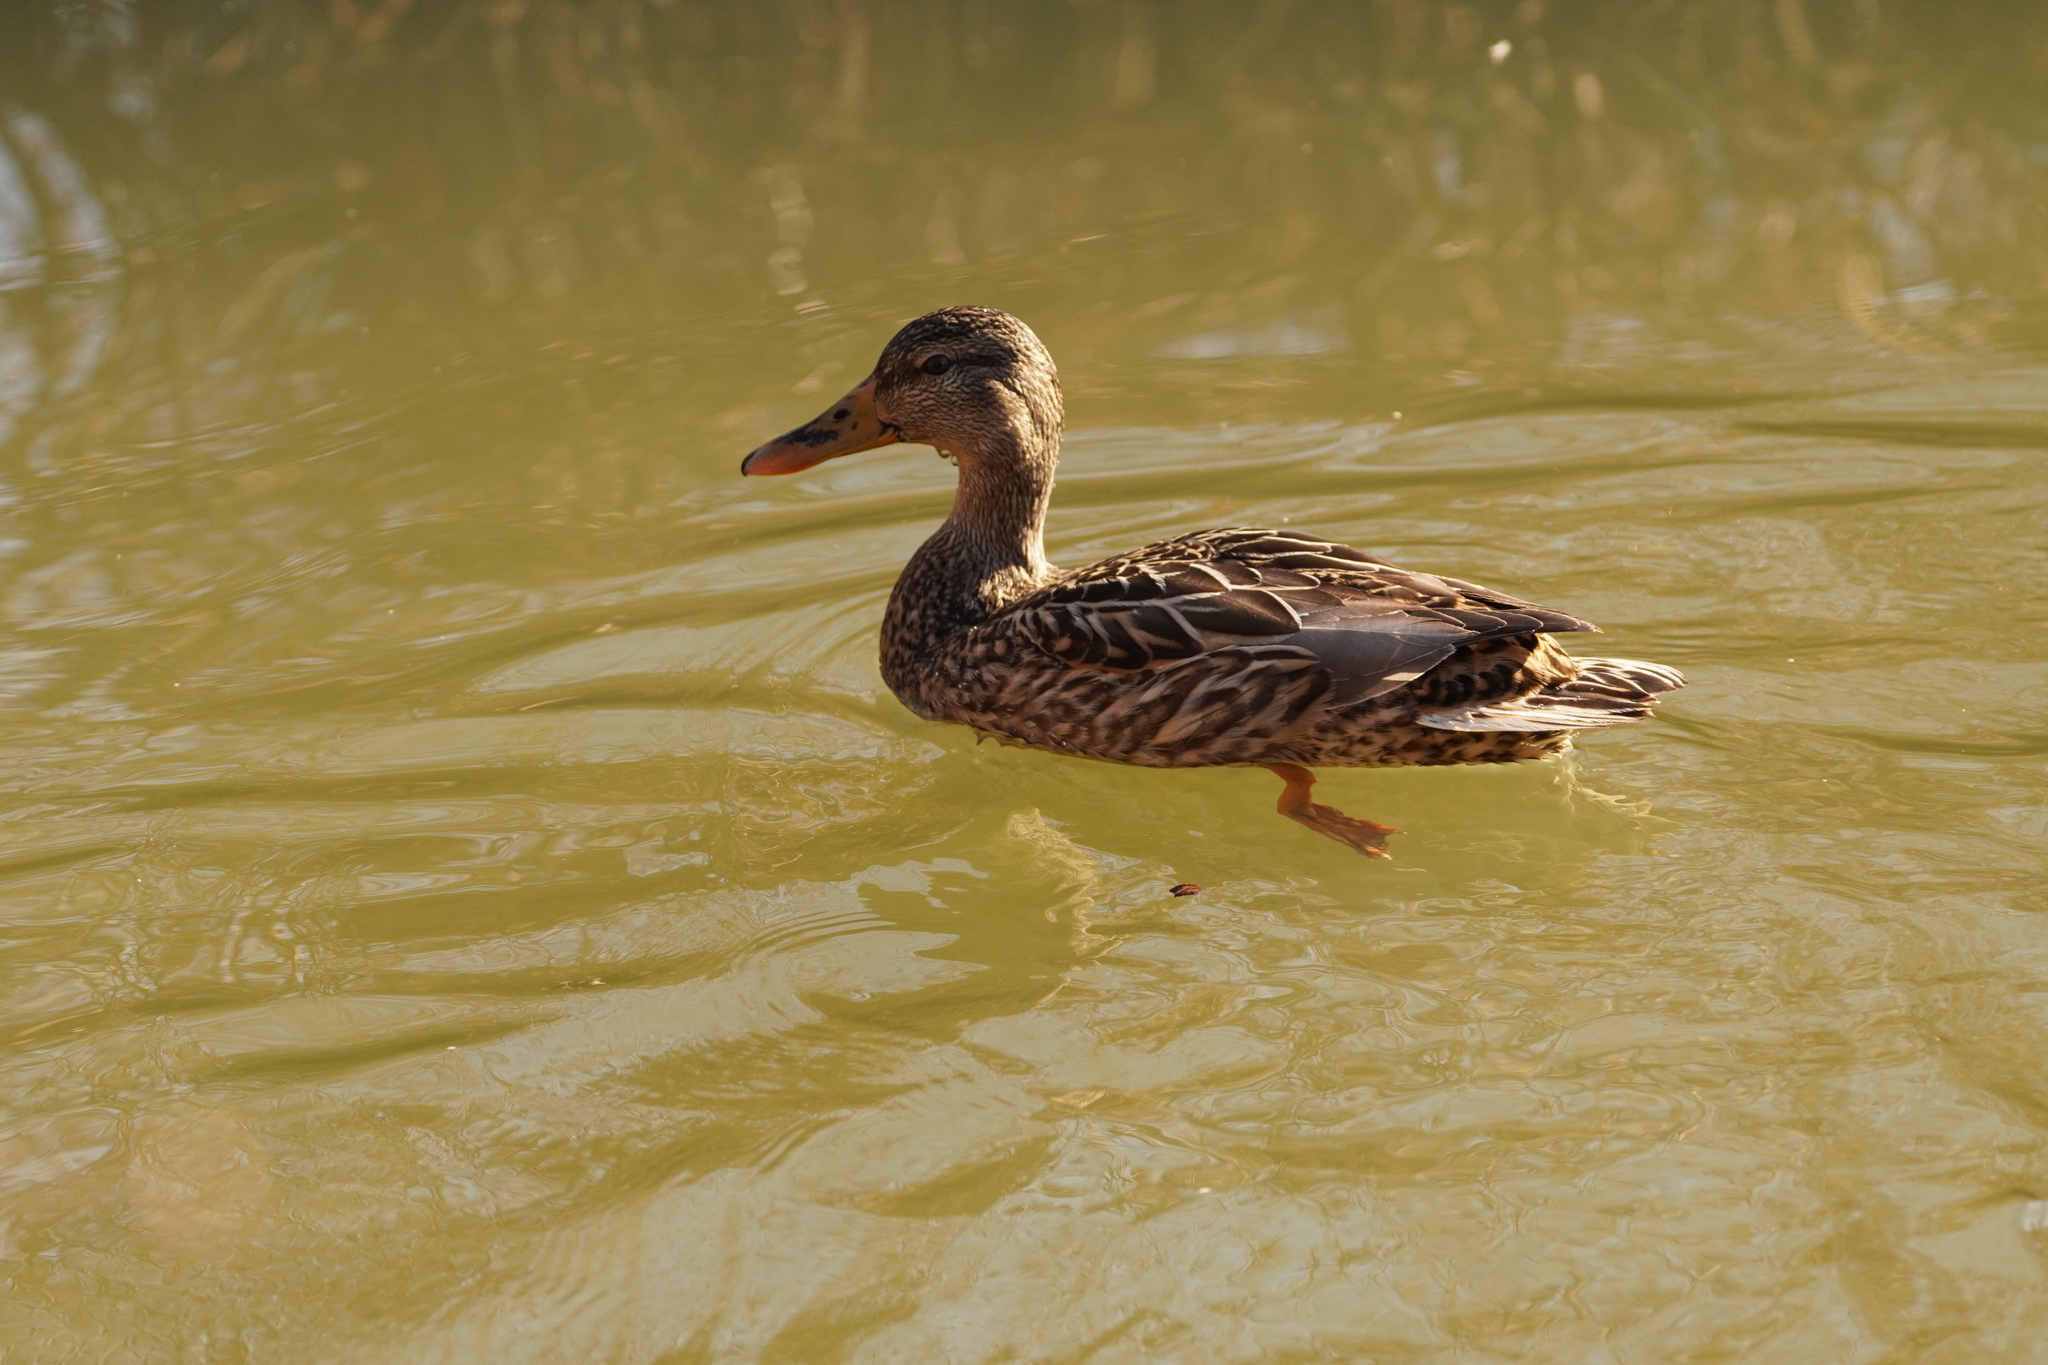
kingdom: Animalia
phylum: Chordata
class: Aves
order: Anseriformes
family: Anatidae
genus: Anas
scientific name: Anas platyrhynchos
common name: Mallard
